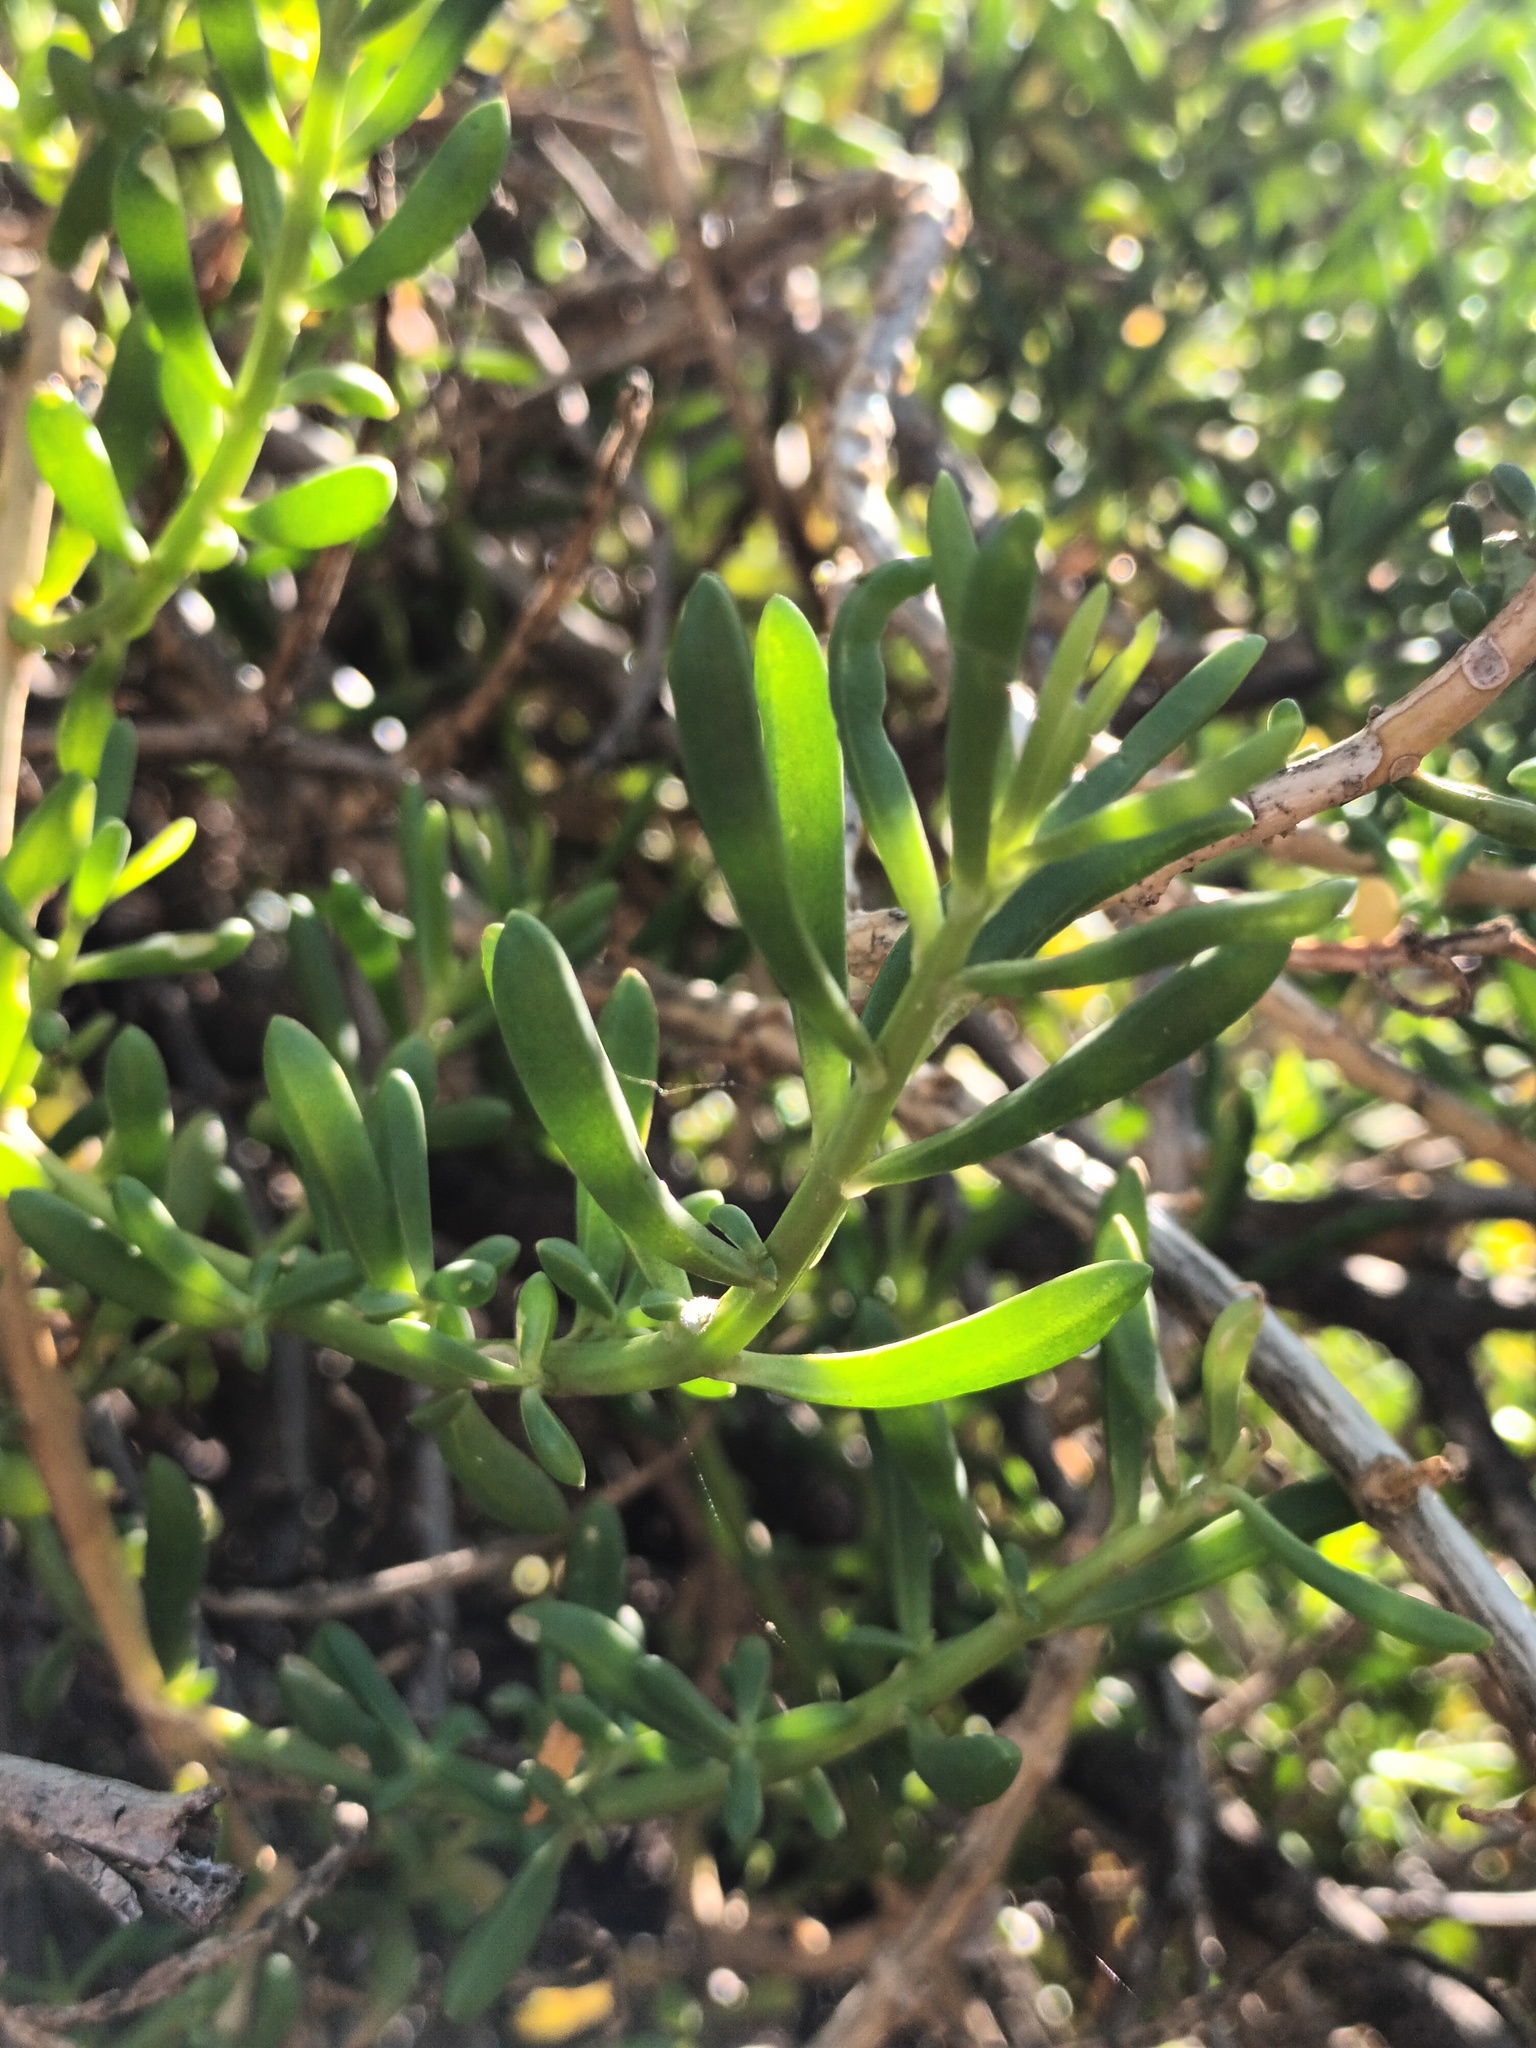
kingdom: Plantae
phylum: Tracheophyta
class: Magnoliopsida
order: Brassicales
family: Bataceae
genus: Batis
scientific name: Batis maritima
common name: Turtleweed
